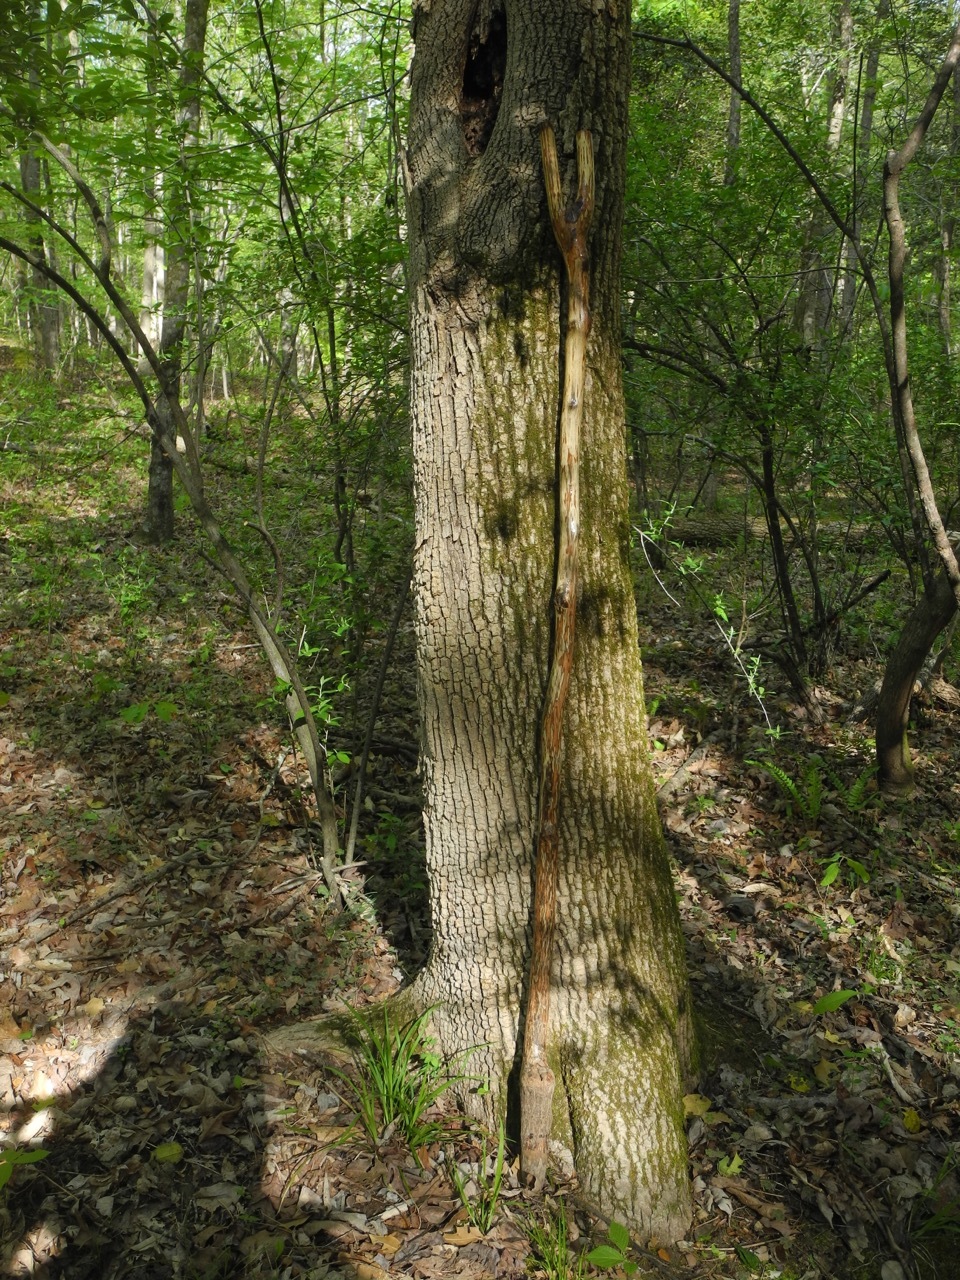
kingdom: Plantae
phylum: Tracheophyta
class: Magnoliopsida
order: Lamiales
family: Oleaceae
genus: Fraxinus
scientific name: Fraxinus pennsylvanica
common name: Green ash
